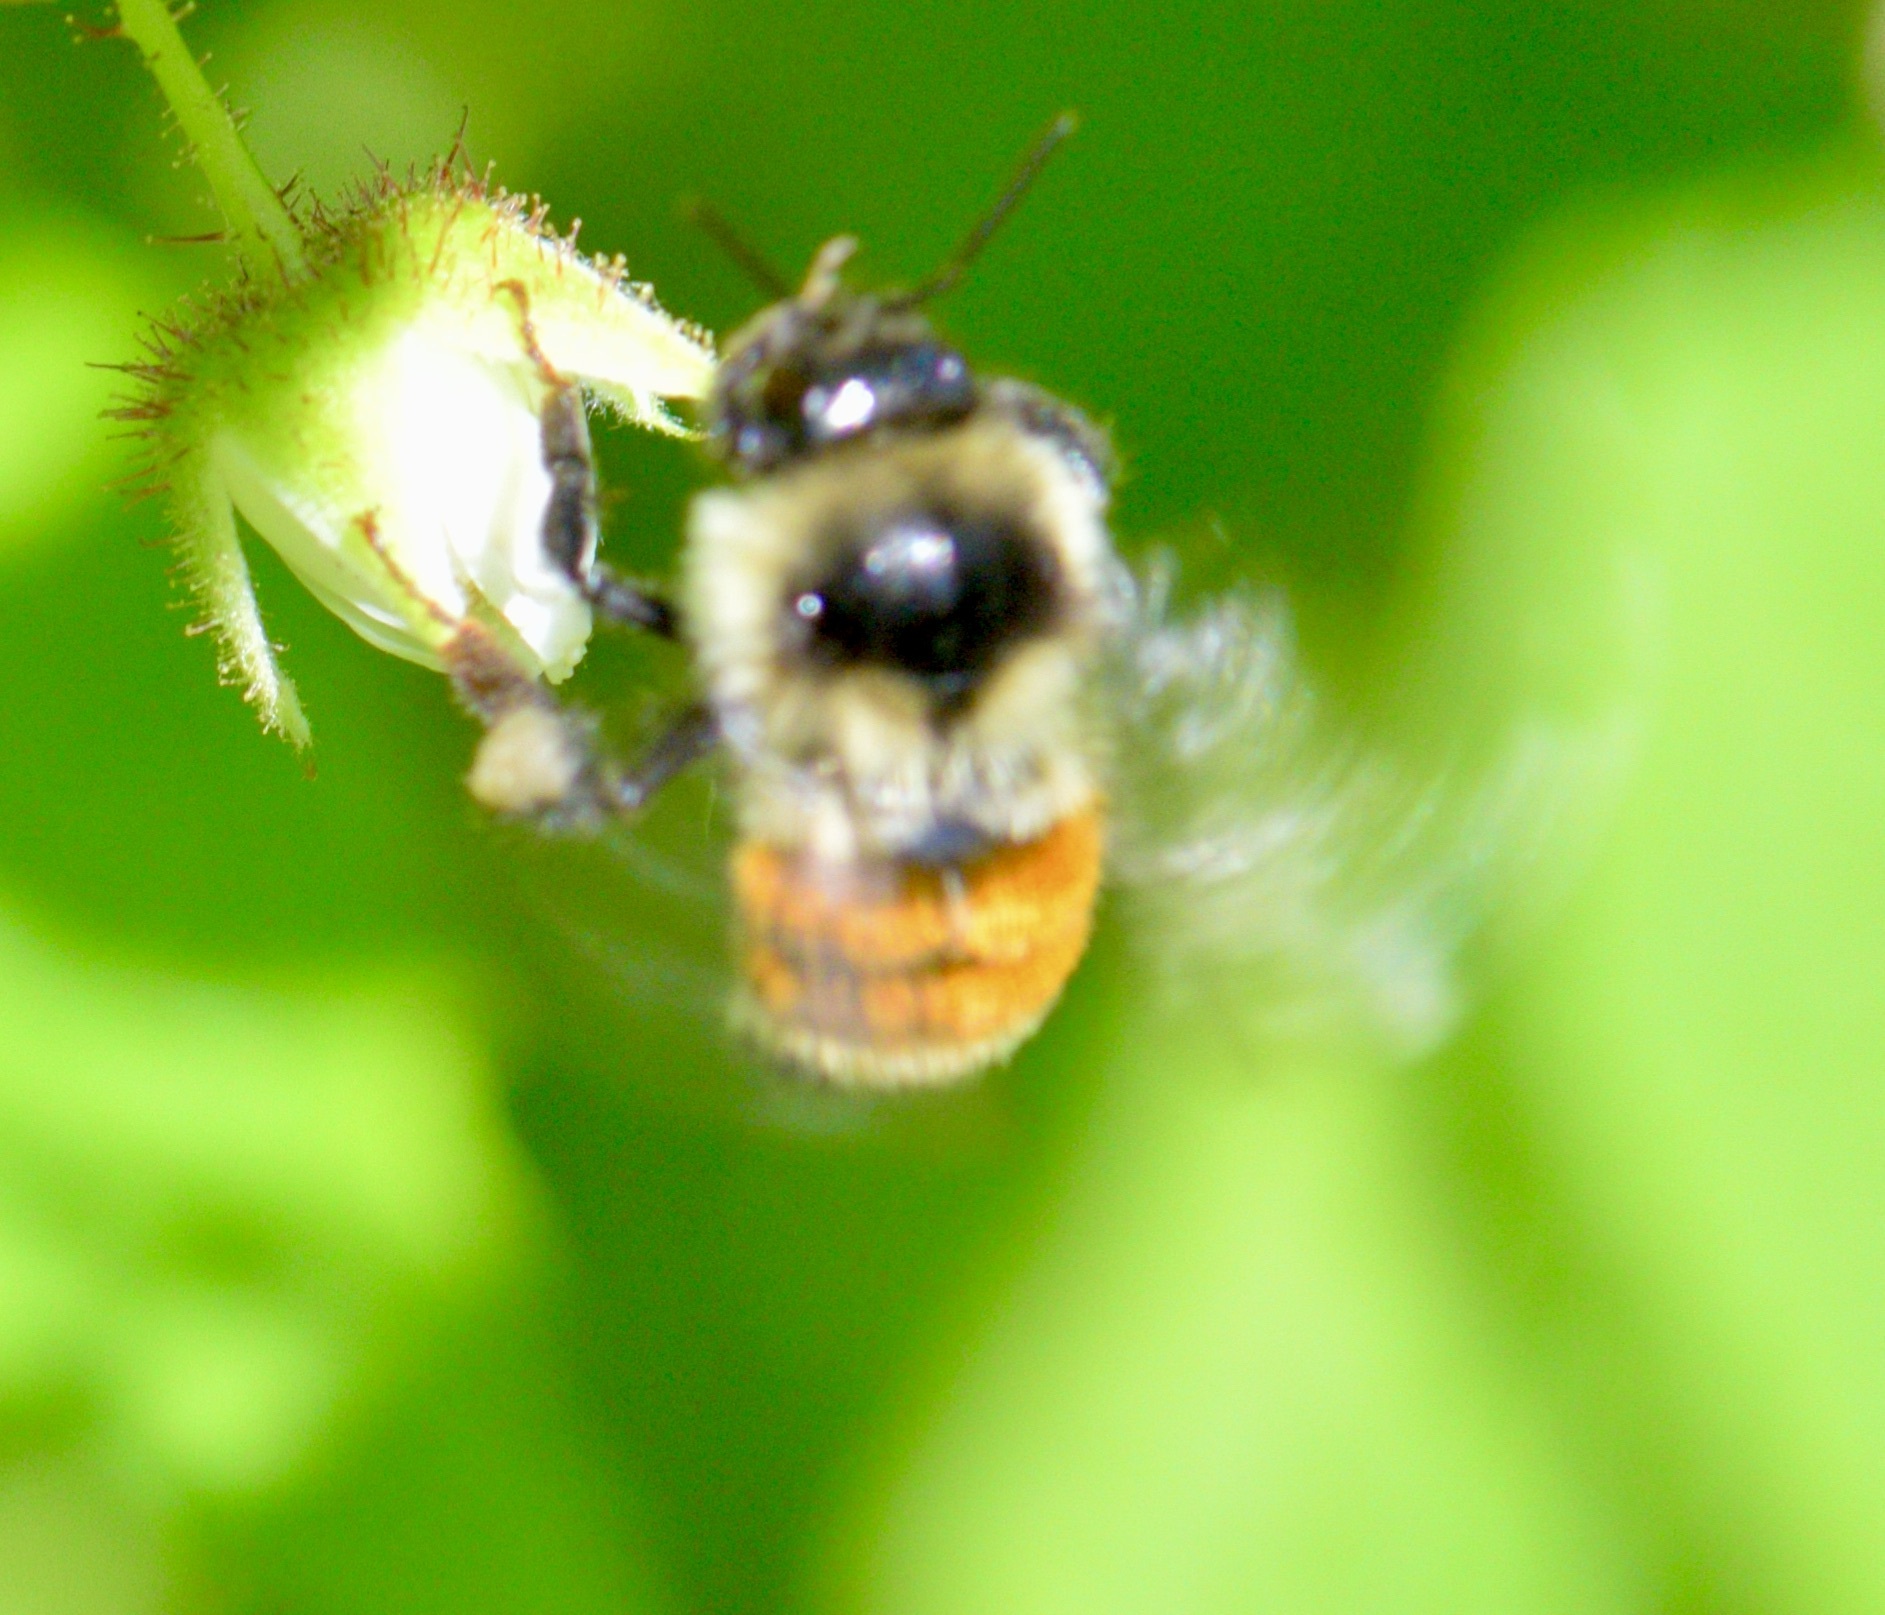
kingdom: Animalia
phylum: Arthropoda
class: Insecta
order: Hymenoptera
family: Apidae
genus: Bombus
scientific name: Bombus ternarius
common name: Tri-colored bumble bee
